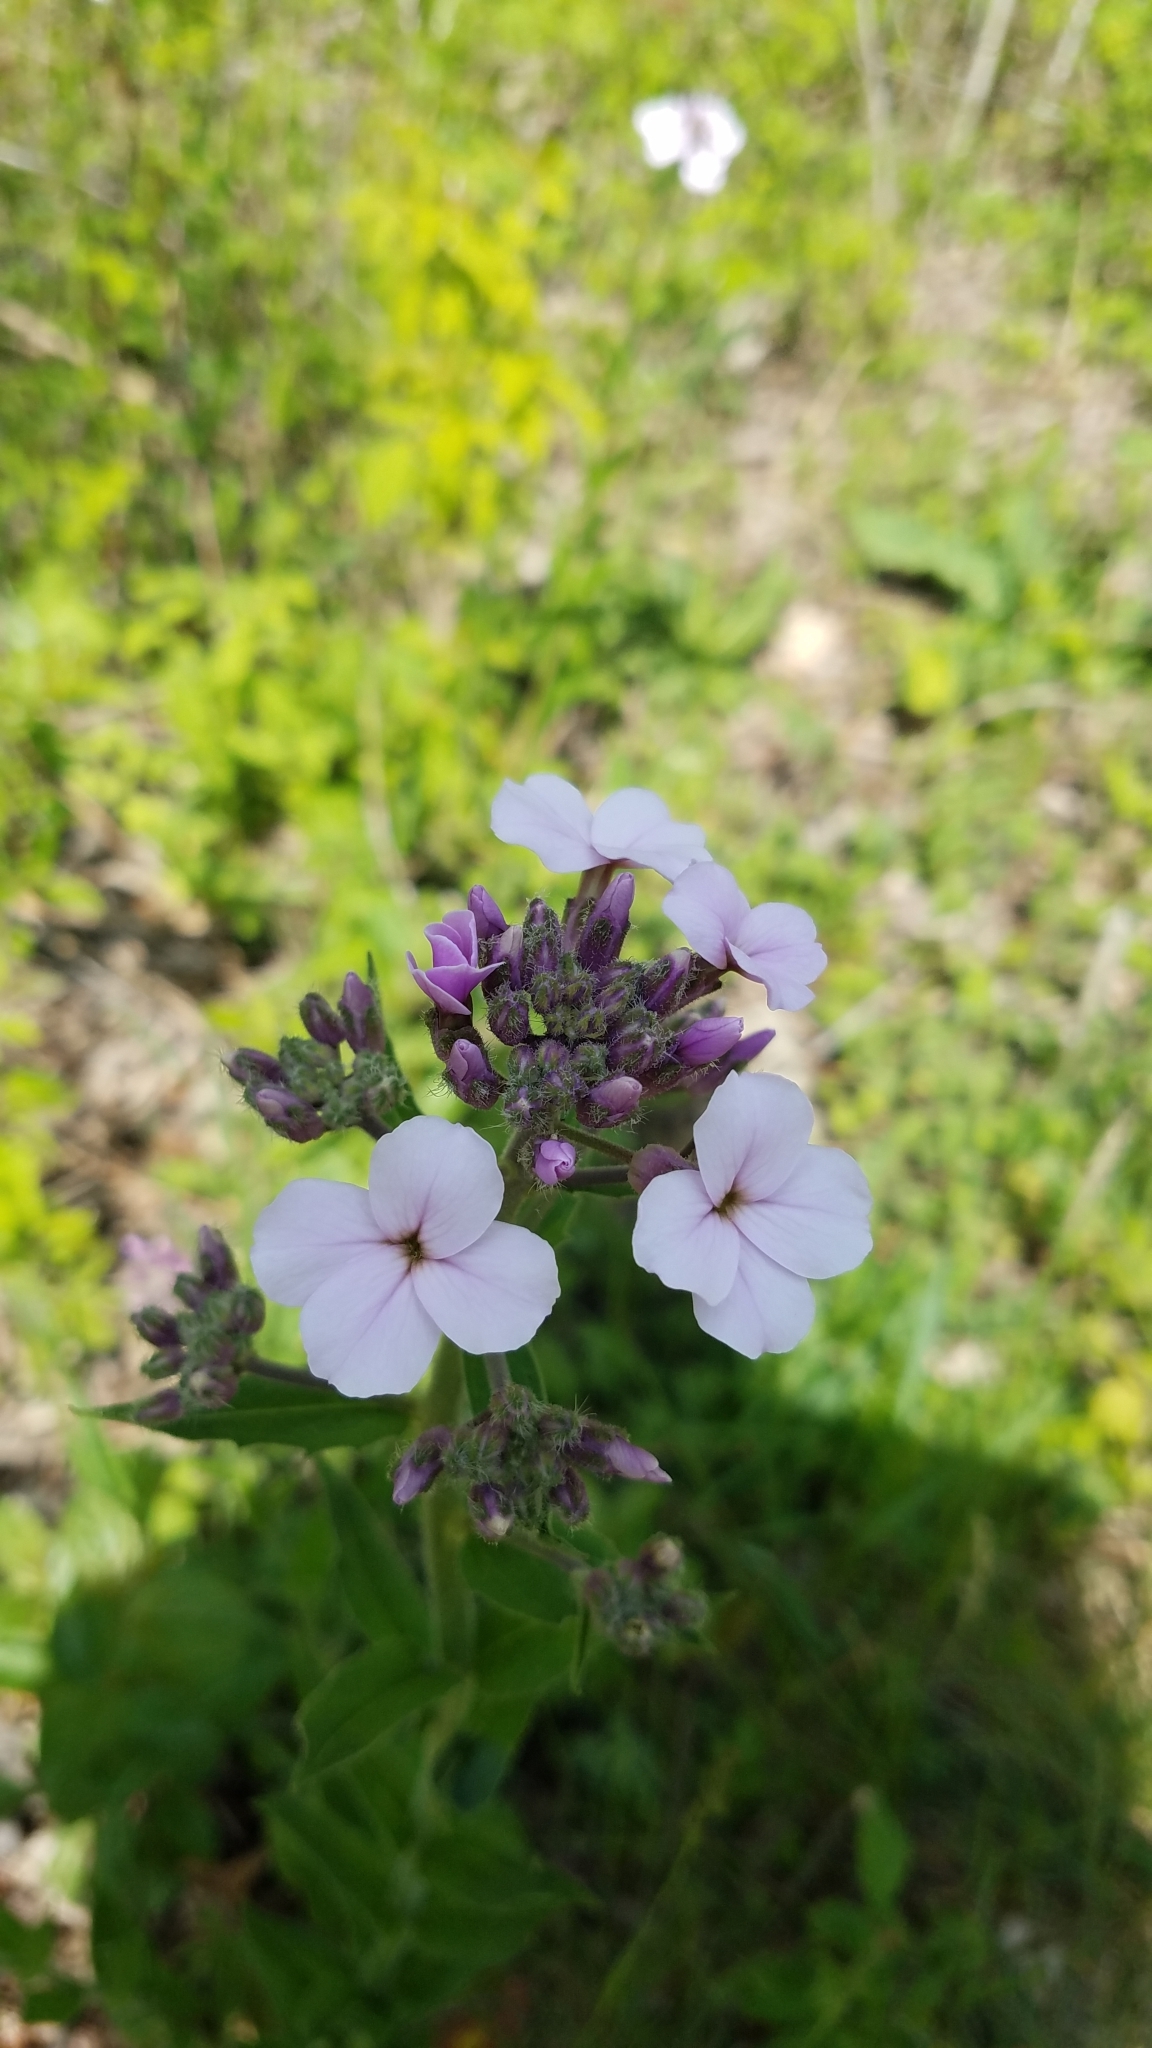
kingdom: Plantae
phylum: Tracheophyta
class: Magnoliopsida
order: Brassicales
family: Brassicaceae
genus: Hesperis
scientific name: Hesperis matronalis
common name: Dame's-violet
